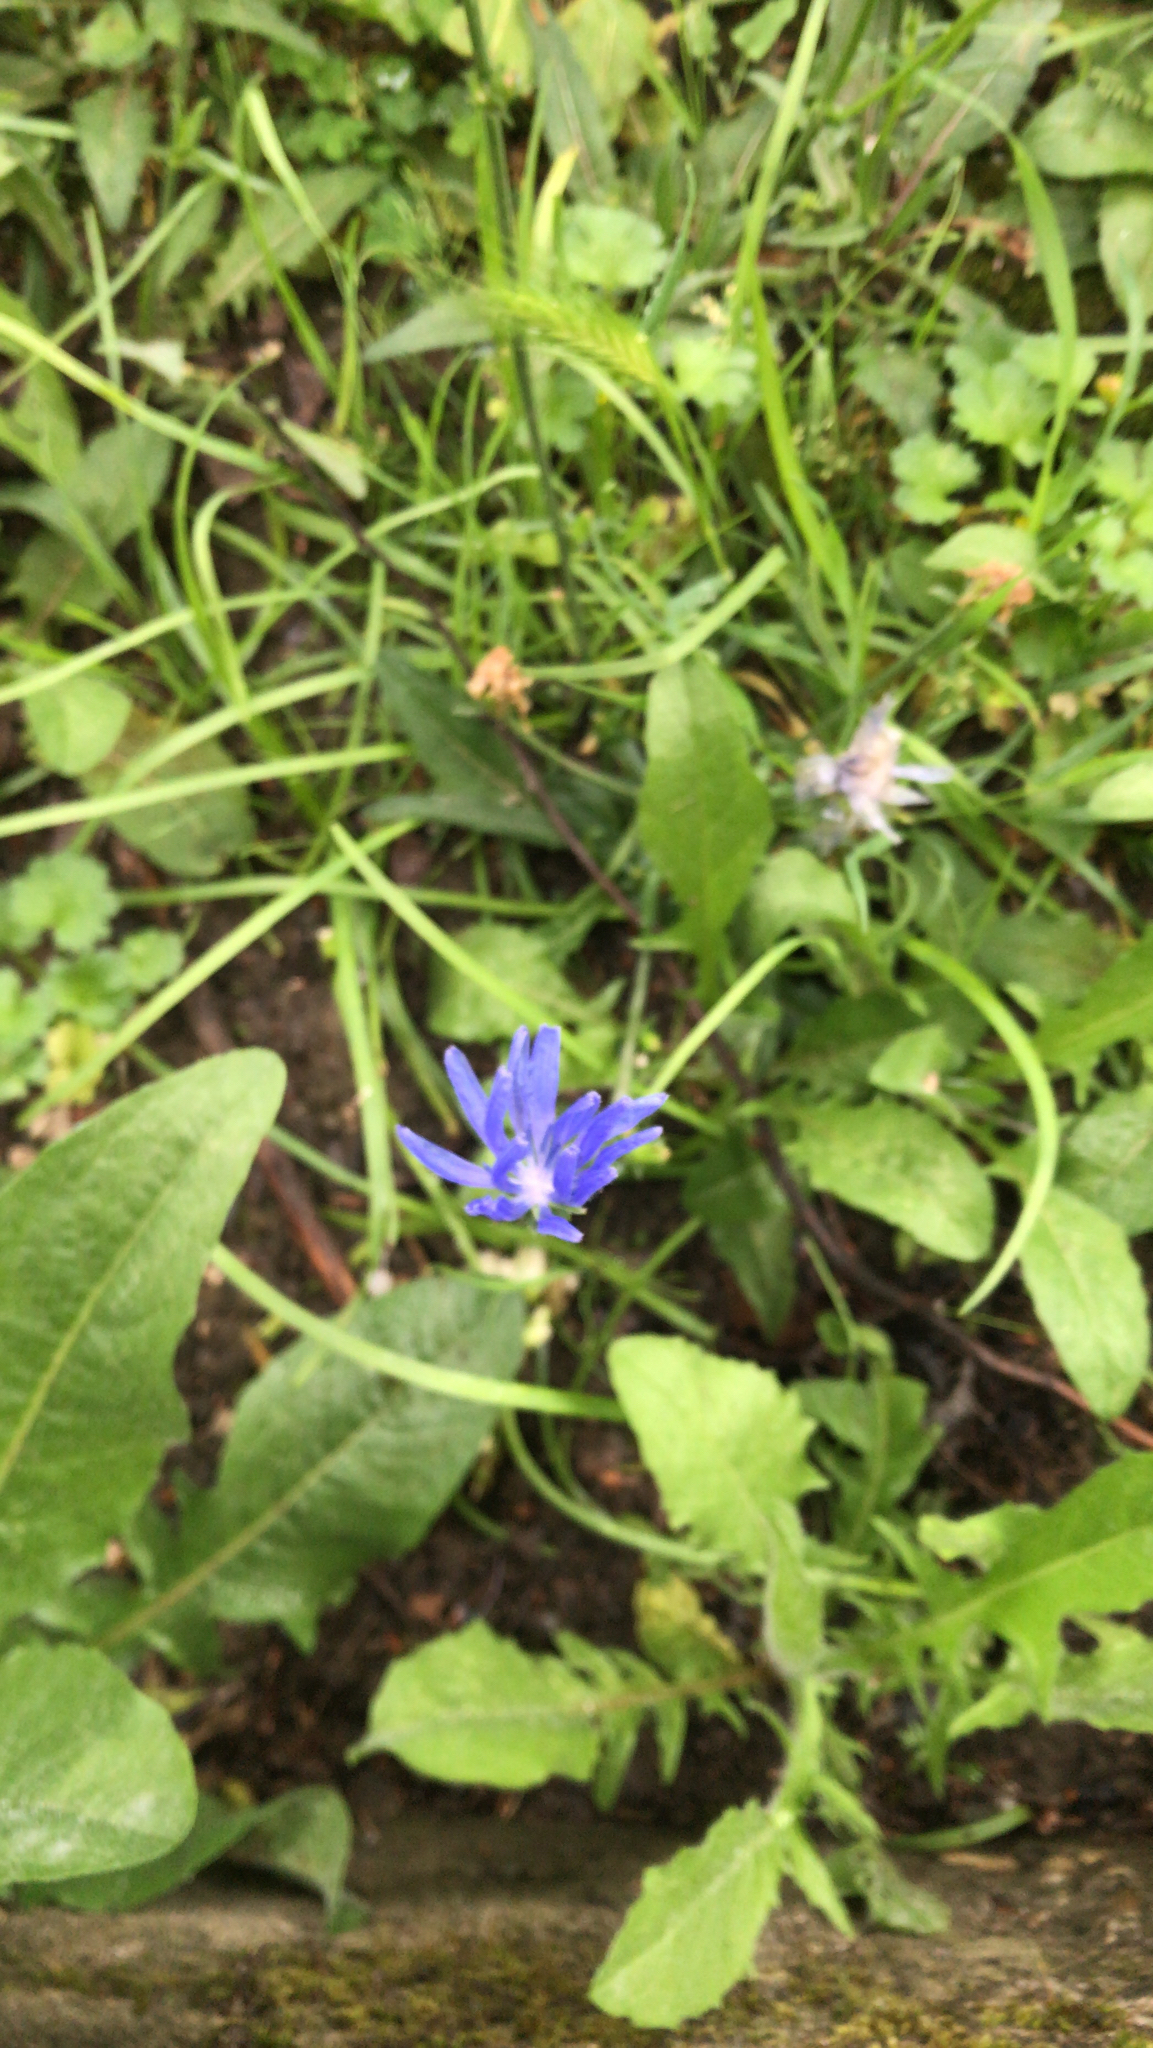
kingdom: Plantae
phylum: Tracheophyta
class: Magnoliopsida
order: Asterales
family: Asteraceae
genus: Cichorium
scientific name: Cichorium intybus
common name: Chicory
